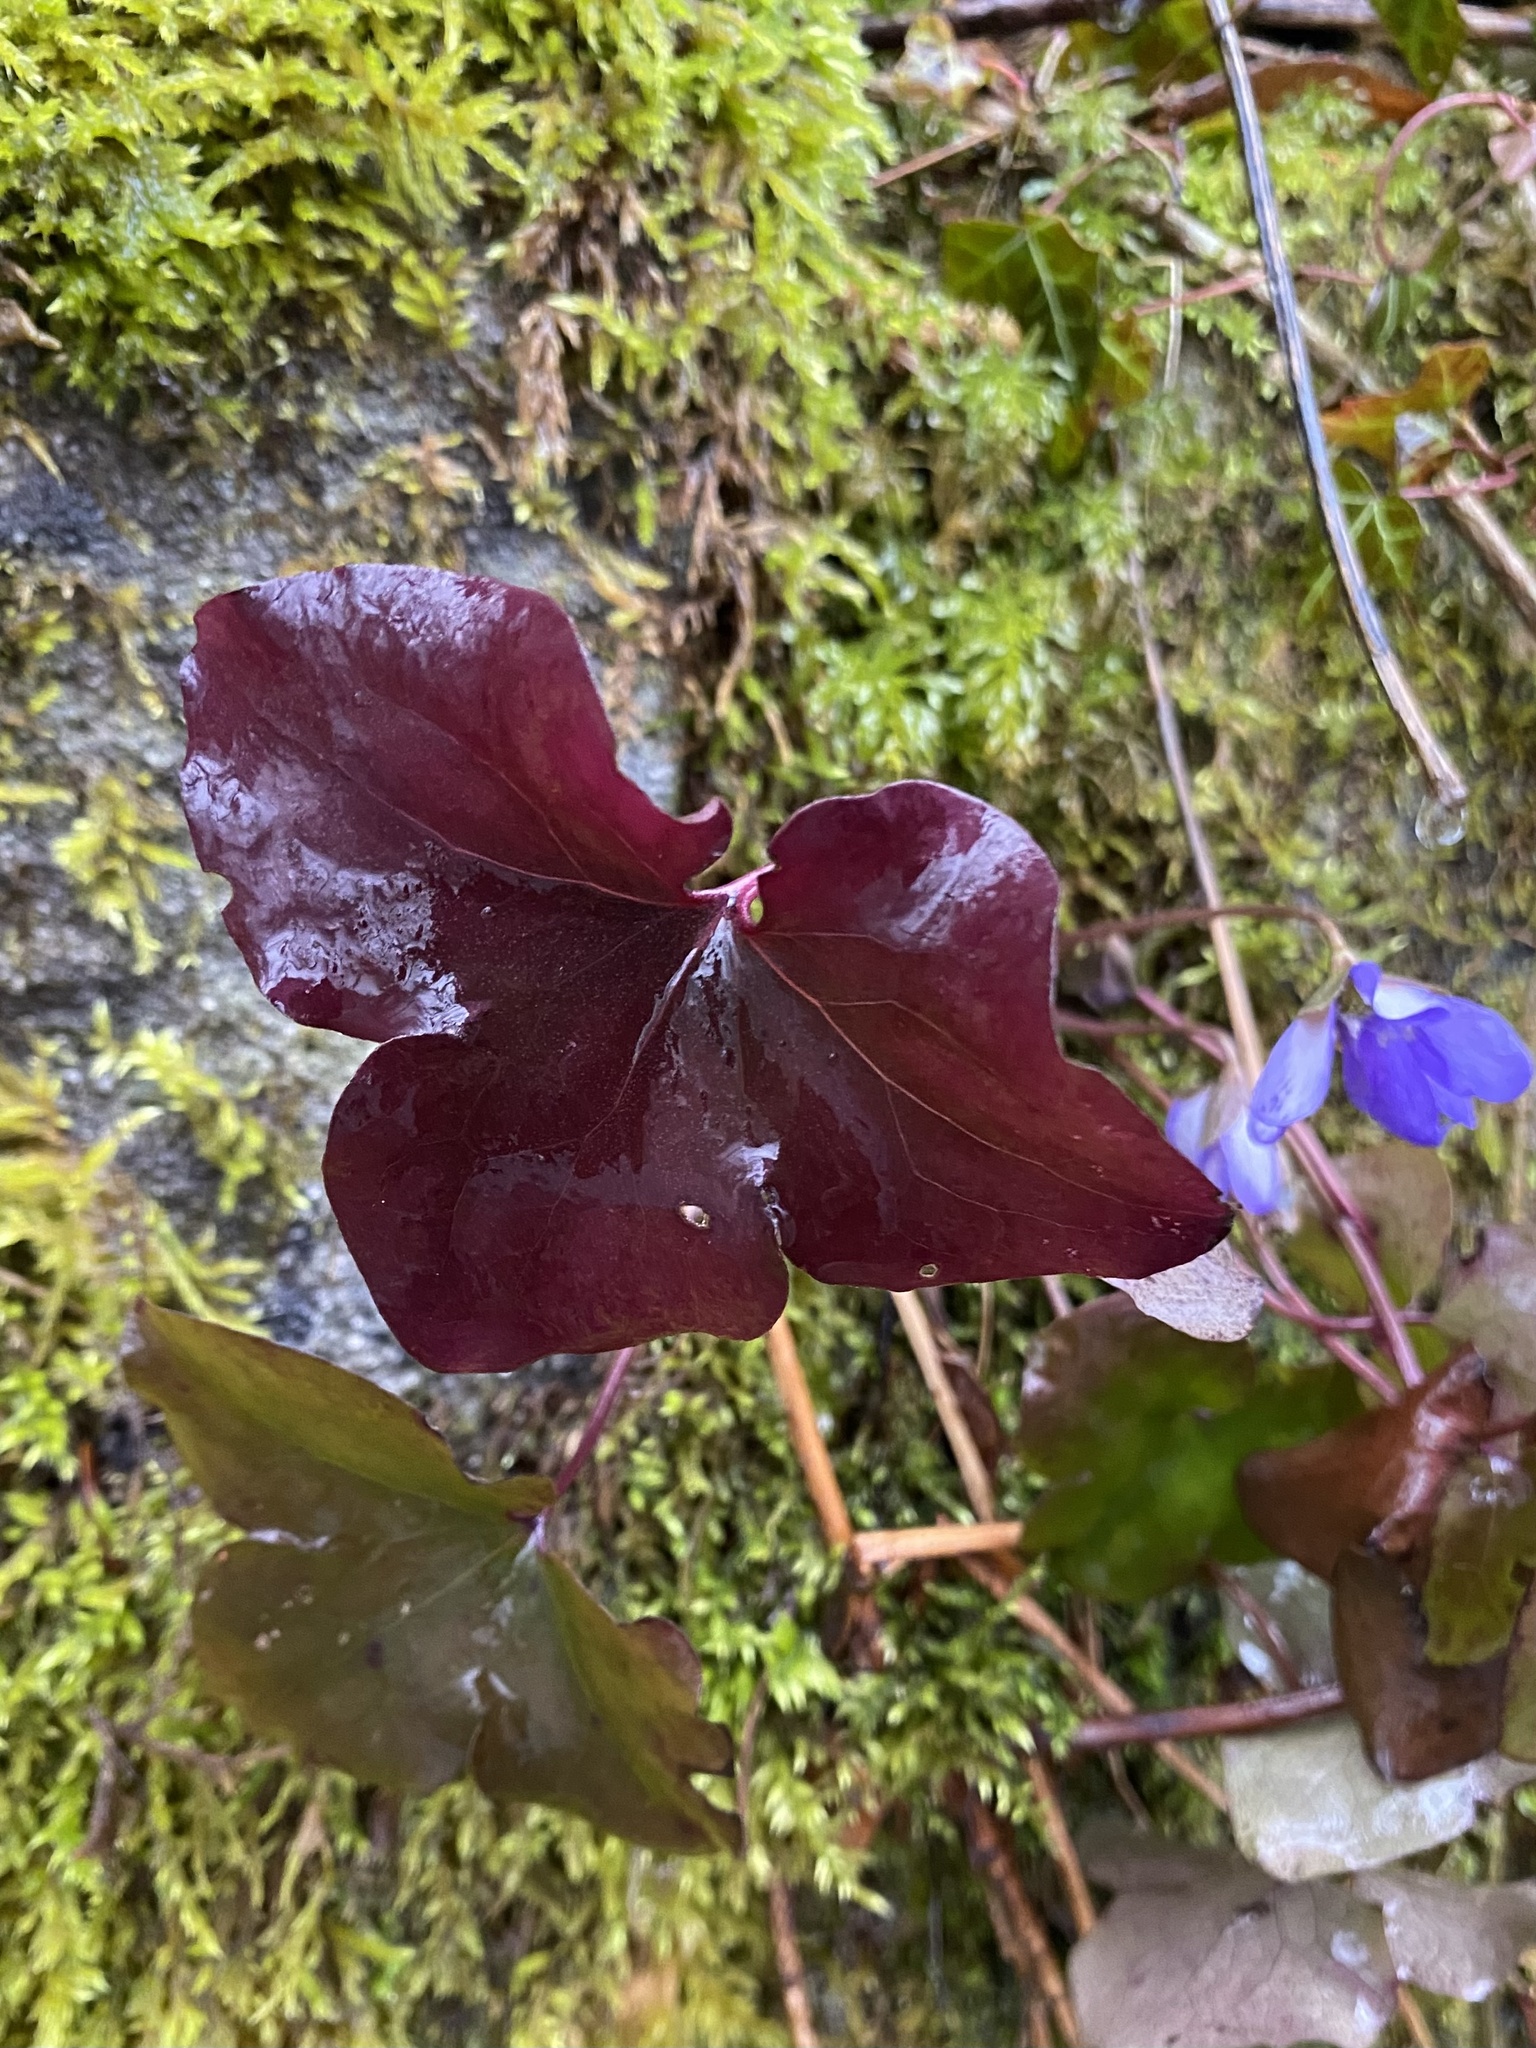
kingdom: Plantae
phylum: Tracheophyta
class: Magnoliopsida
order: Ranunculales
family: Ranunculaceae
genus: Hepatica
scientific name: Hepatica nobilis
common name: Liverleaf
